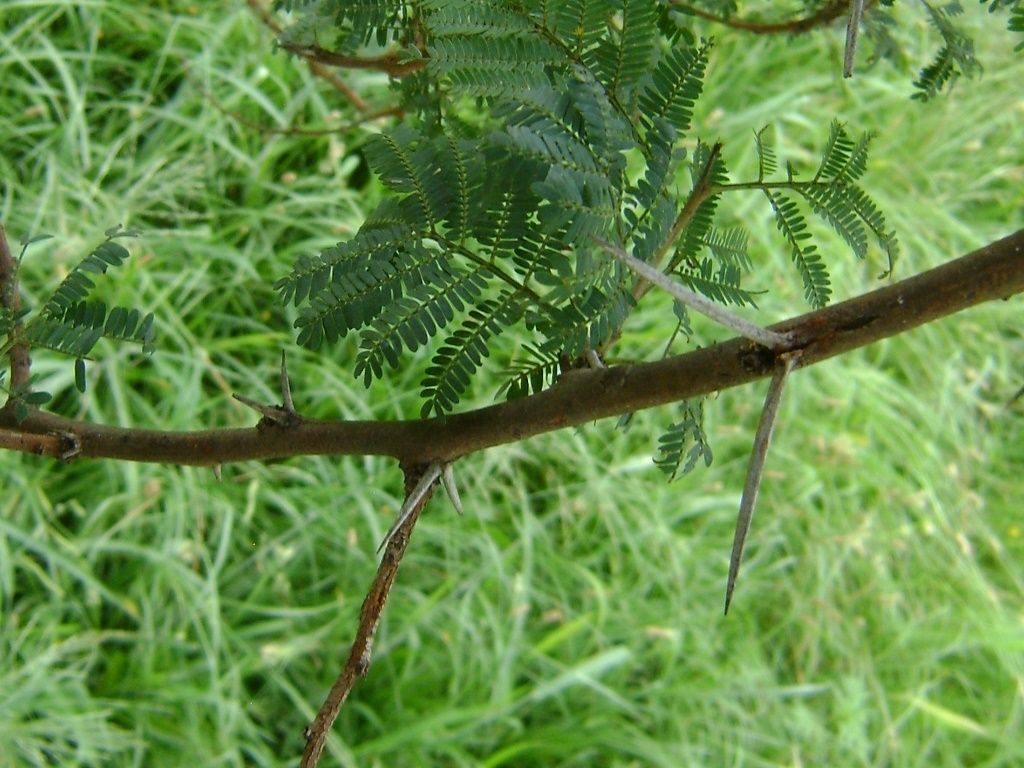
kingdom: Plantae
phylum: Tracheophyta
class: Magnoliopsida
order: Fabales
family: Fabaceae
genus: Vachellia
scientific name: Vachellia karroo
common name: Sweet thorn
